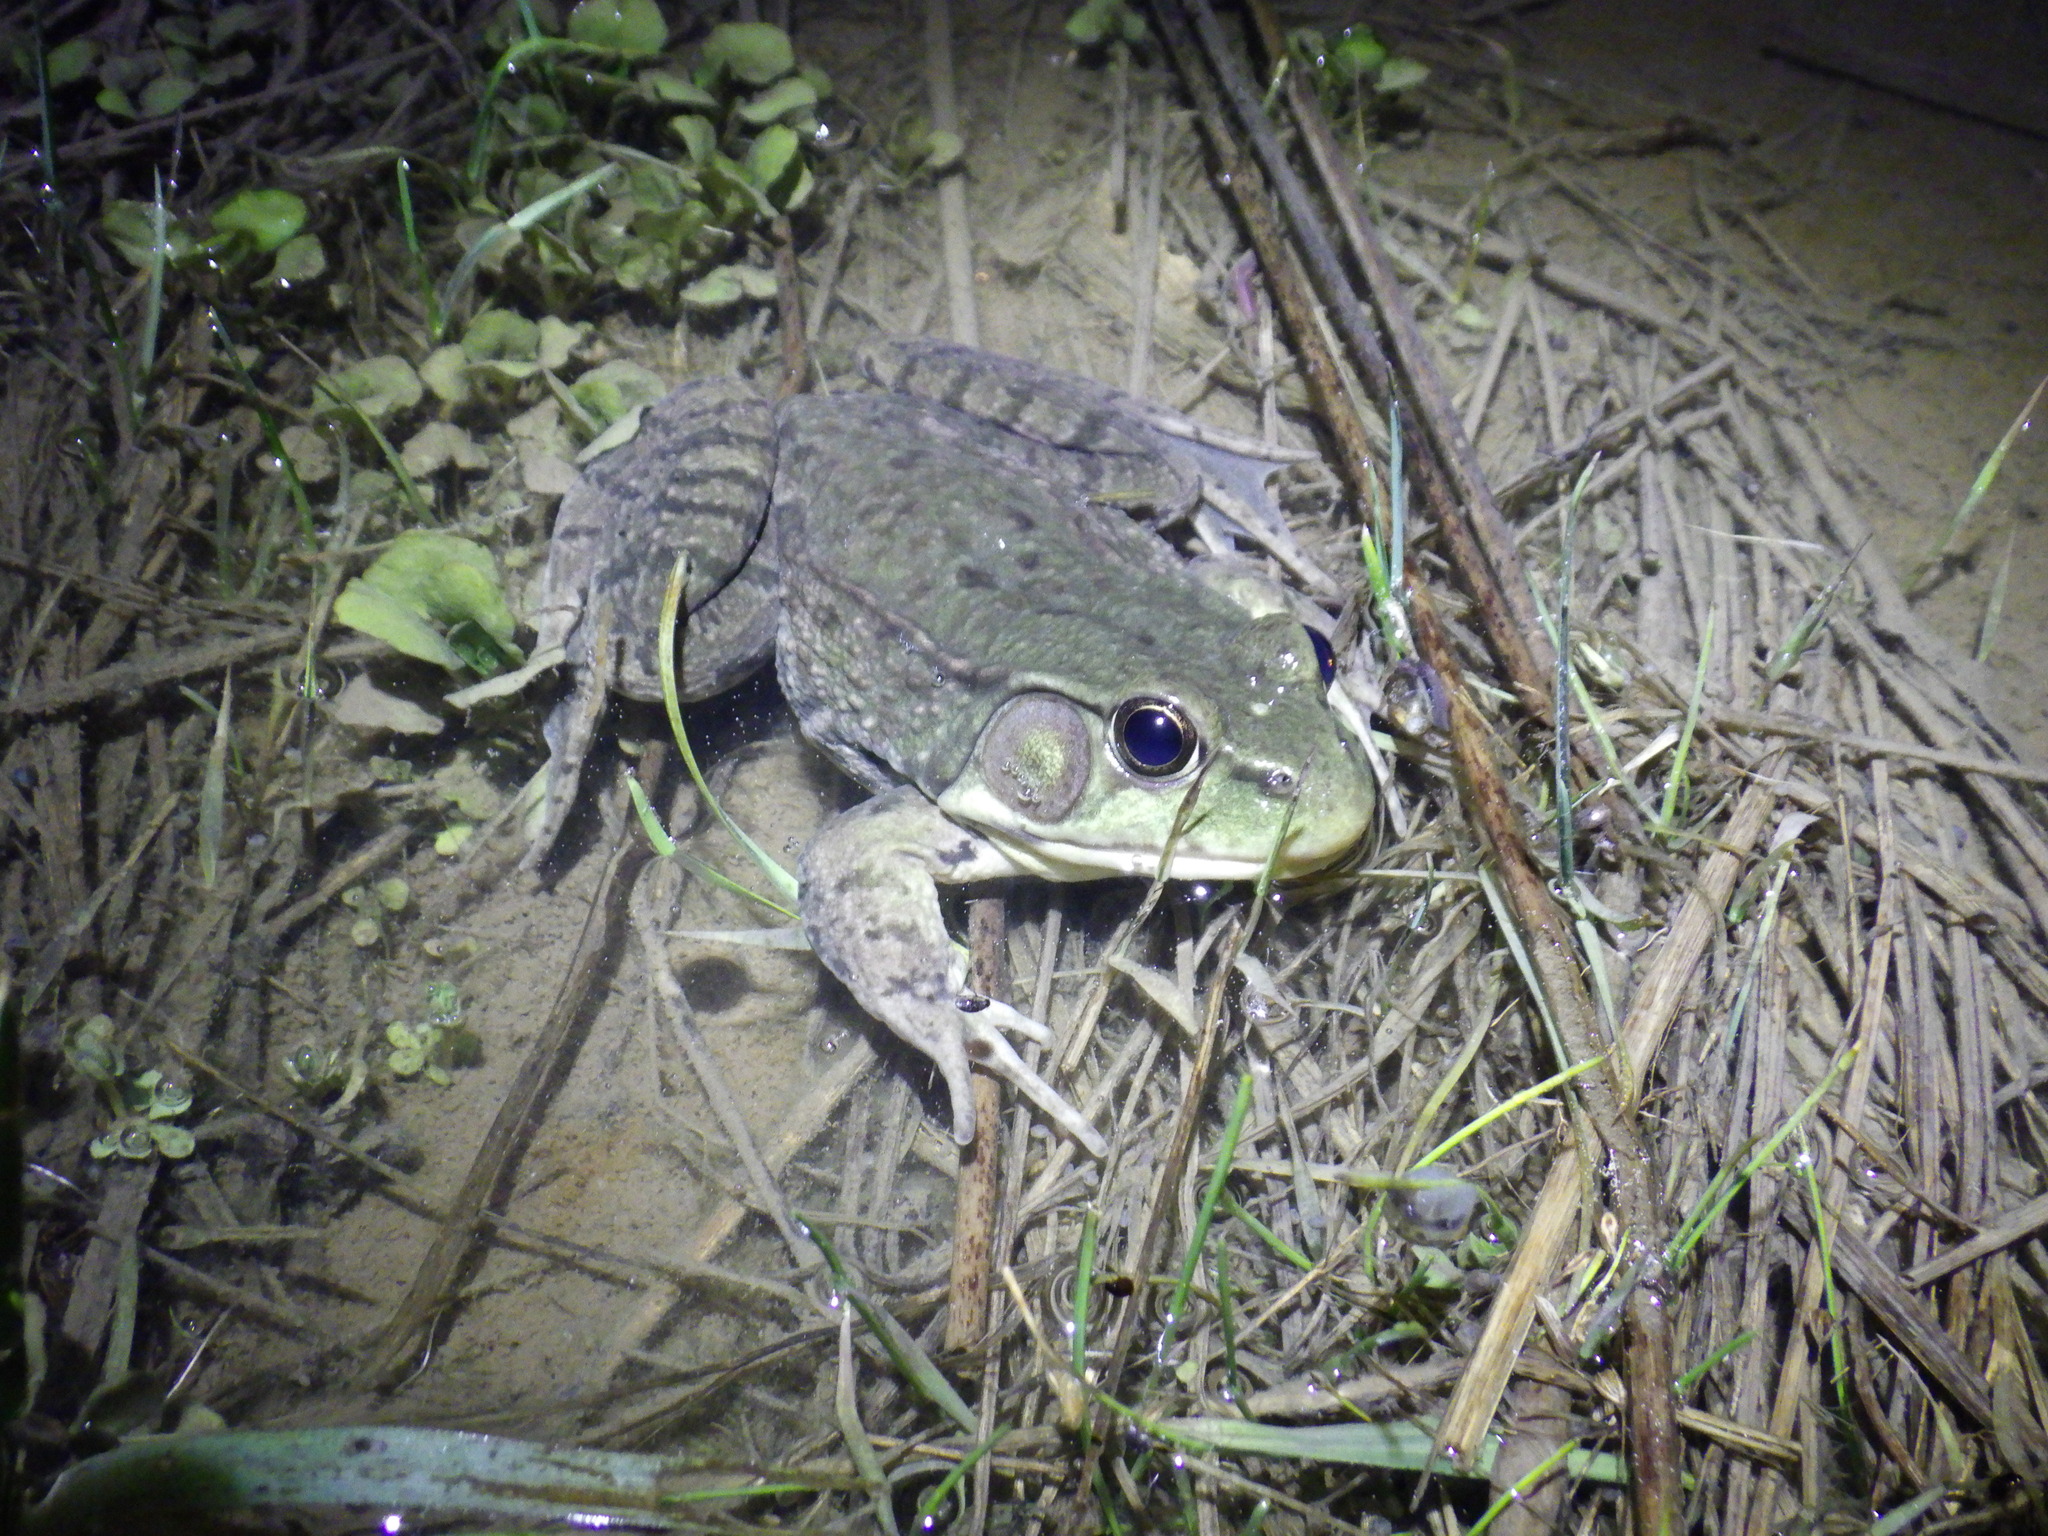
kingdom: Animalia
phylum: Chordata
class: Amphibia
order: Anura
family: Ranidae
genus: Lithobates
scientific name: Lithobates clamitans
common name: Green frog
